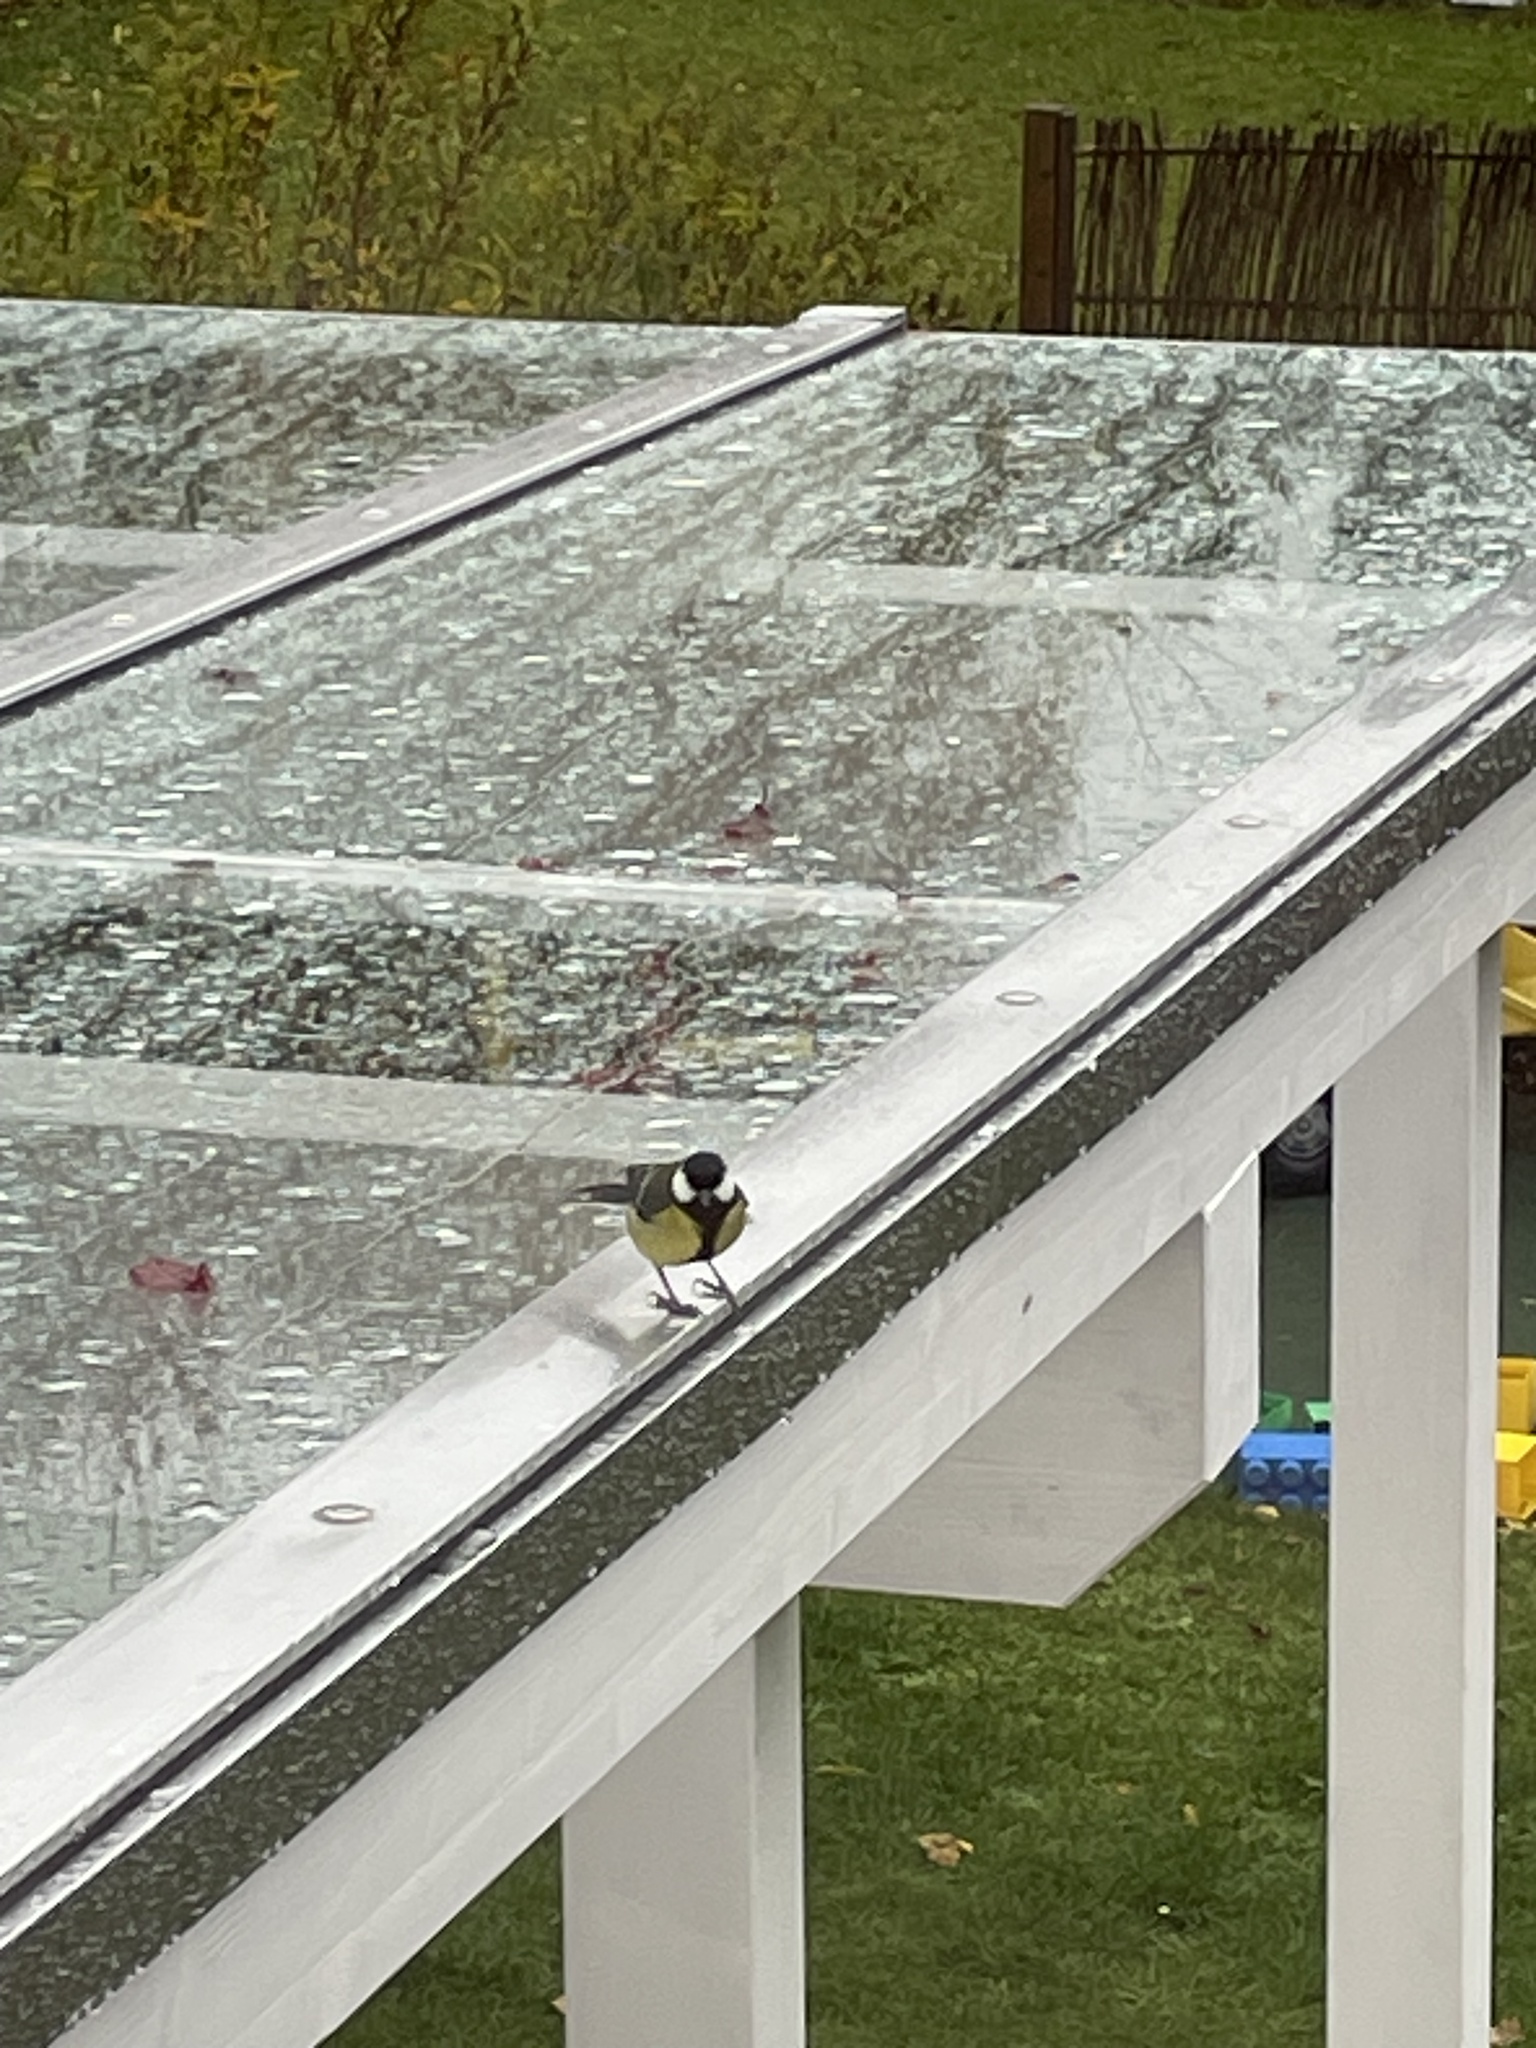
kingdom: Animalia
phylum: Chordata
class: Aves
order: Passeriformes
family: Paridae
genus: Parus
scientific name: Parus major
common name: Great tit
